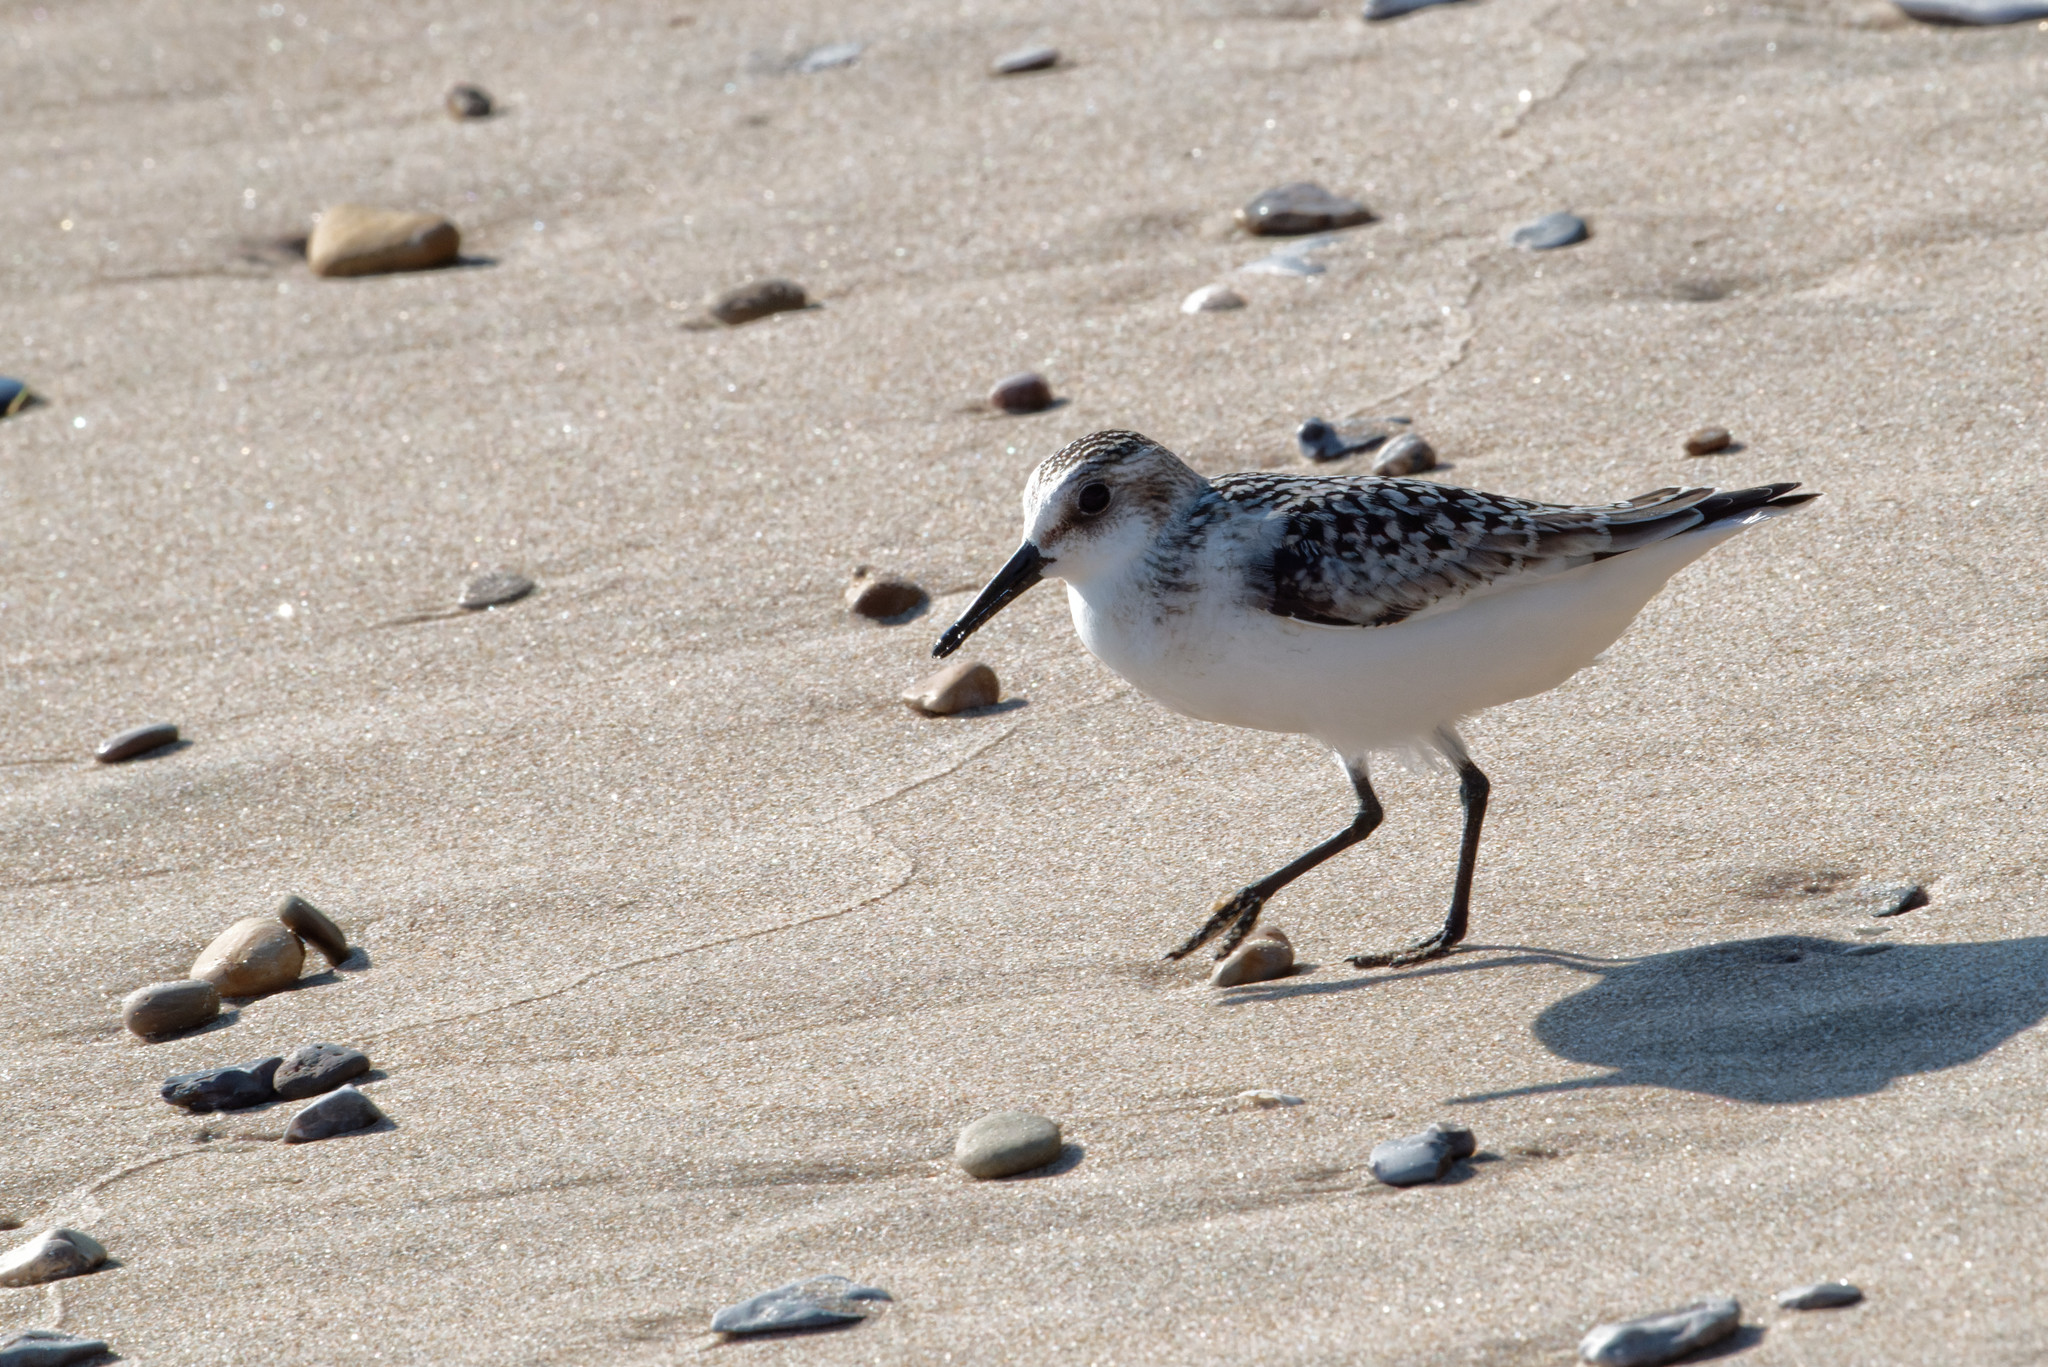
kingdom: Animalia
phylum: Chordata
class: Aves
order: Charadriiformes
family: Scolopacidae
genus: Calidris
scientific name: Calidris alba
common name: Sanderling
